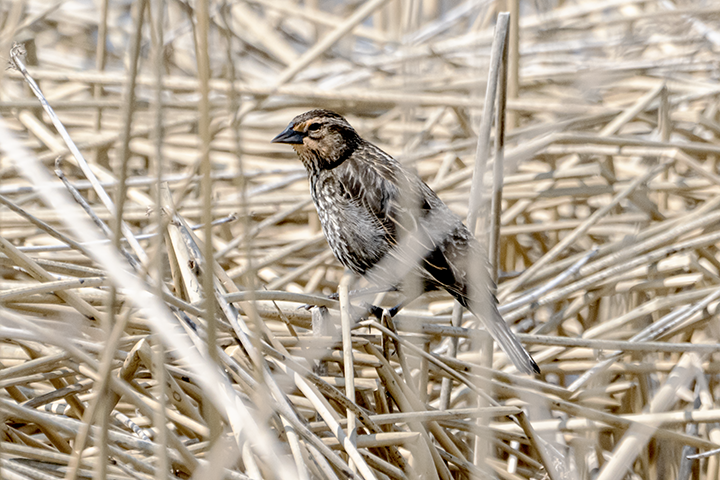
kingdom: Animalia
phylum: Chordata
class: Aves
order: Passeriformes
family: Icteridae
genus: Agelaius
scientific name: Agelaius phoeniceus
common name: Red-winged blackbird
